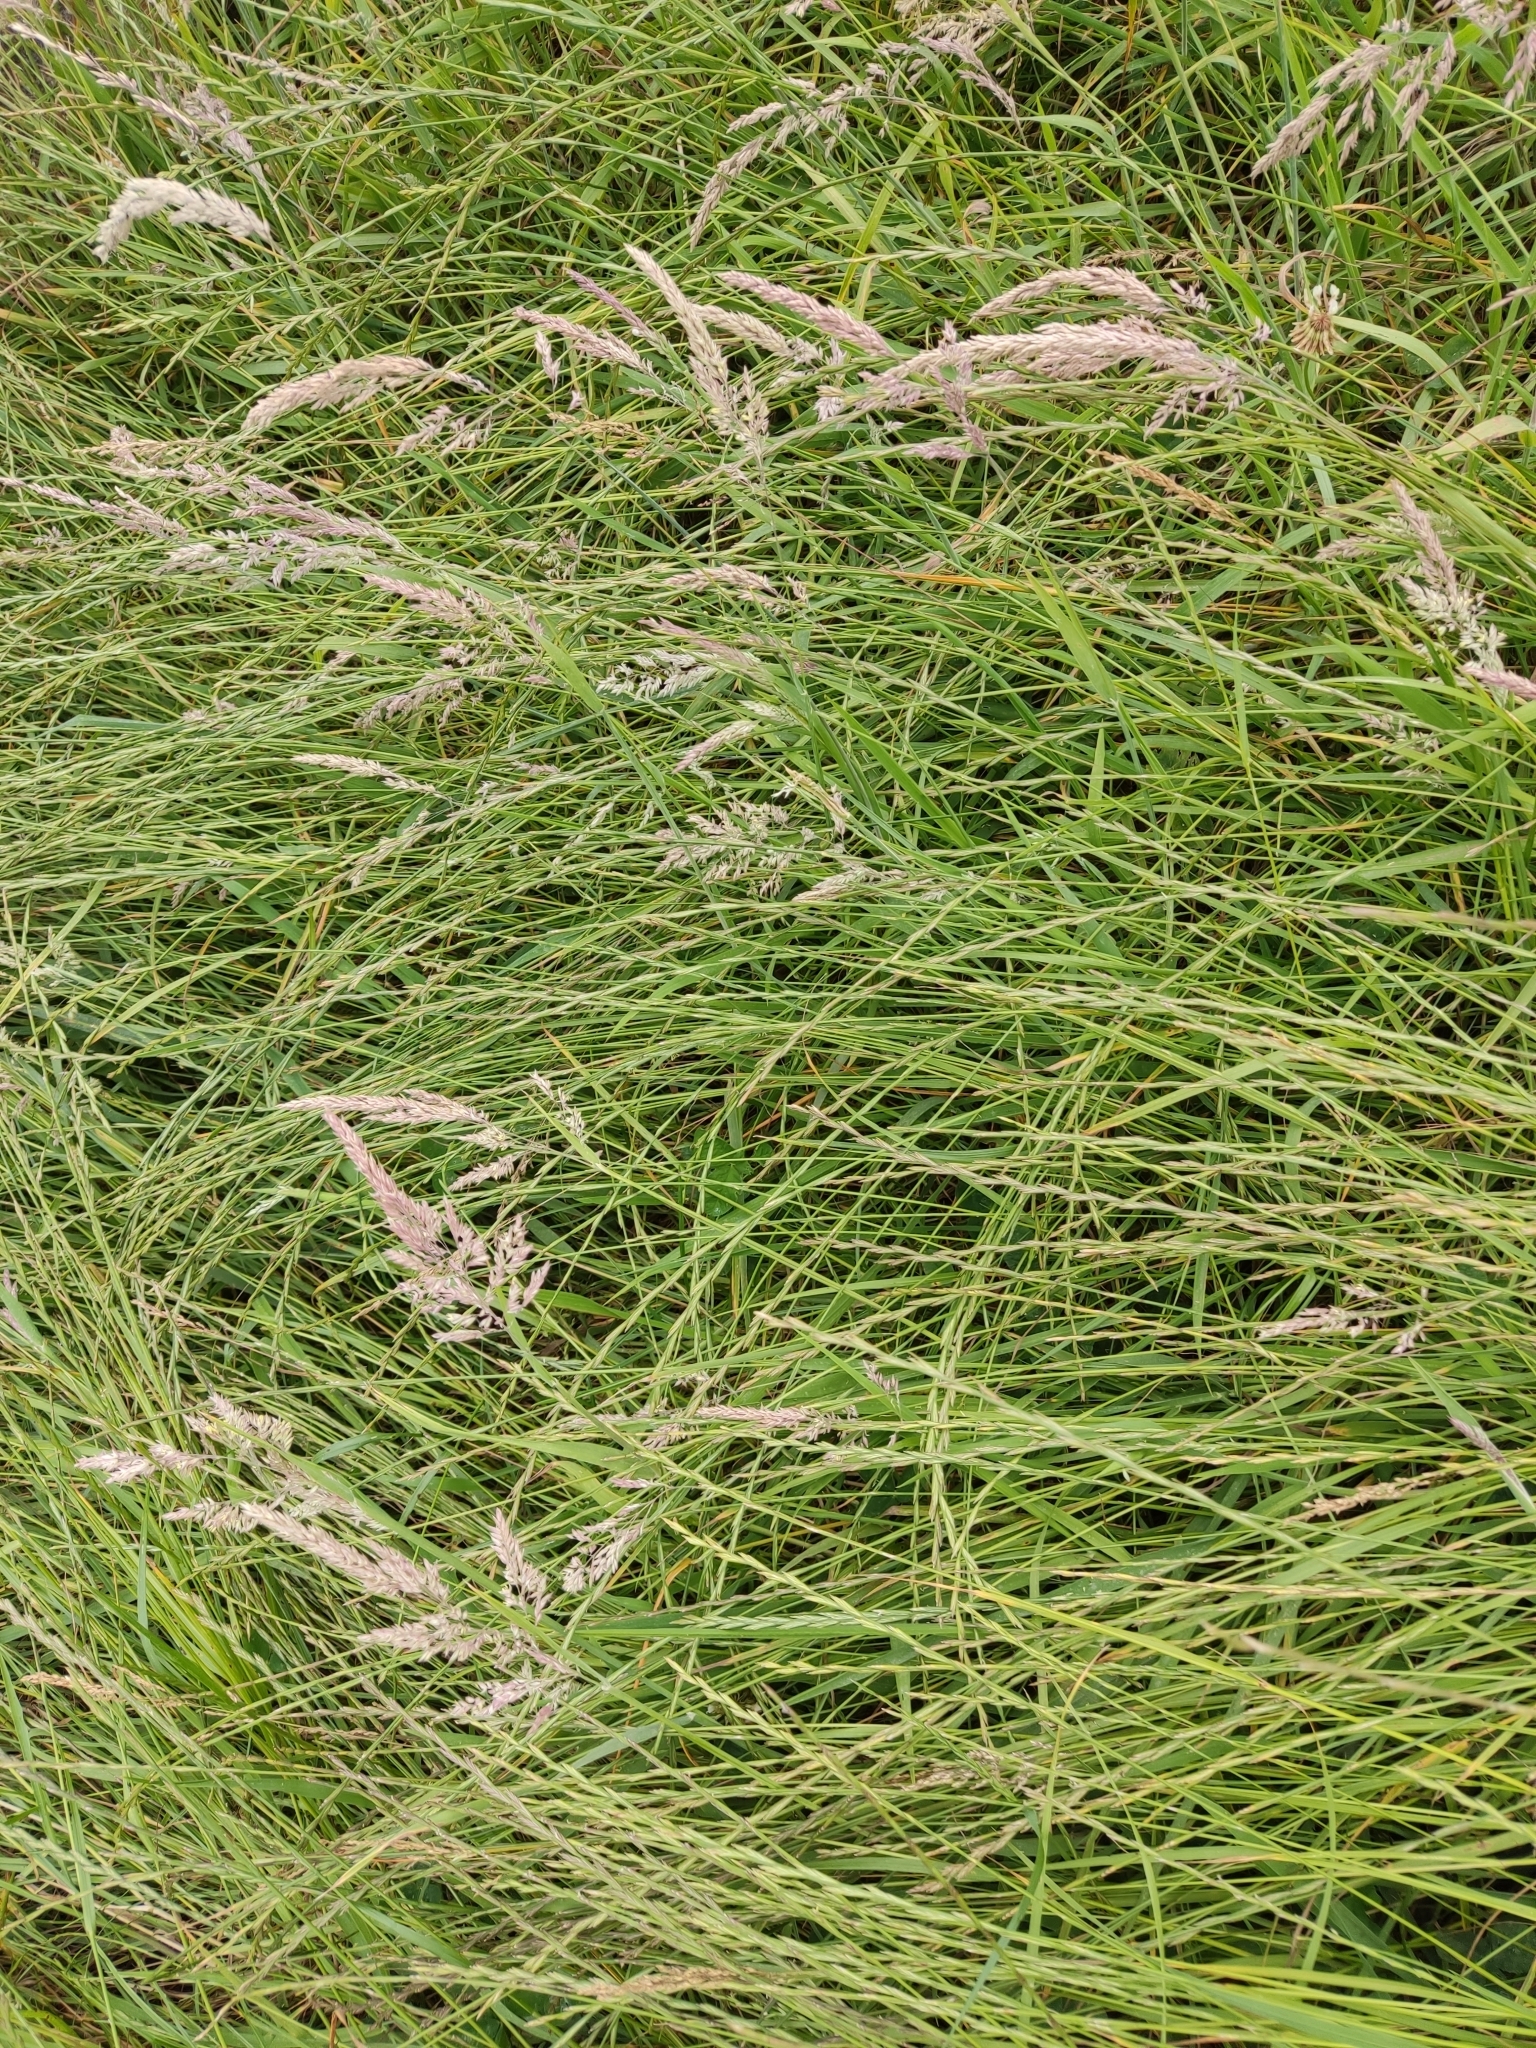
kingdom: Plantae
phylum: Tracheophyta
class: Liliopsida
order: Poales
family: Poaceae
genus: Holcus
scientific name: Holcus lanatus
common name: Yorkshire-fog
